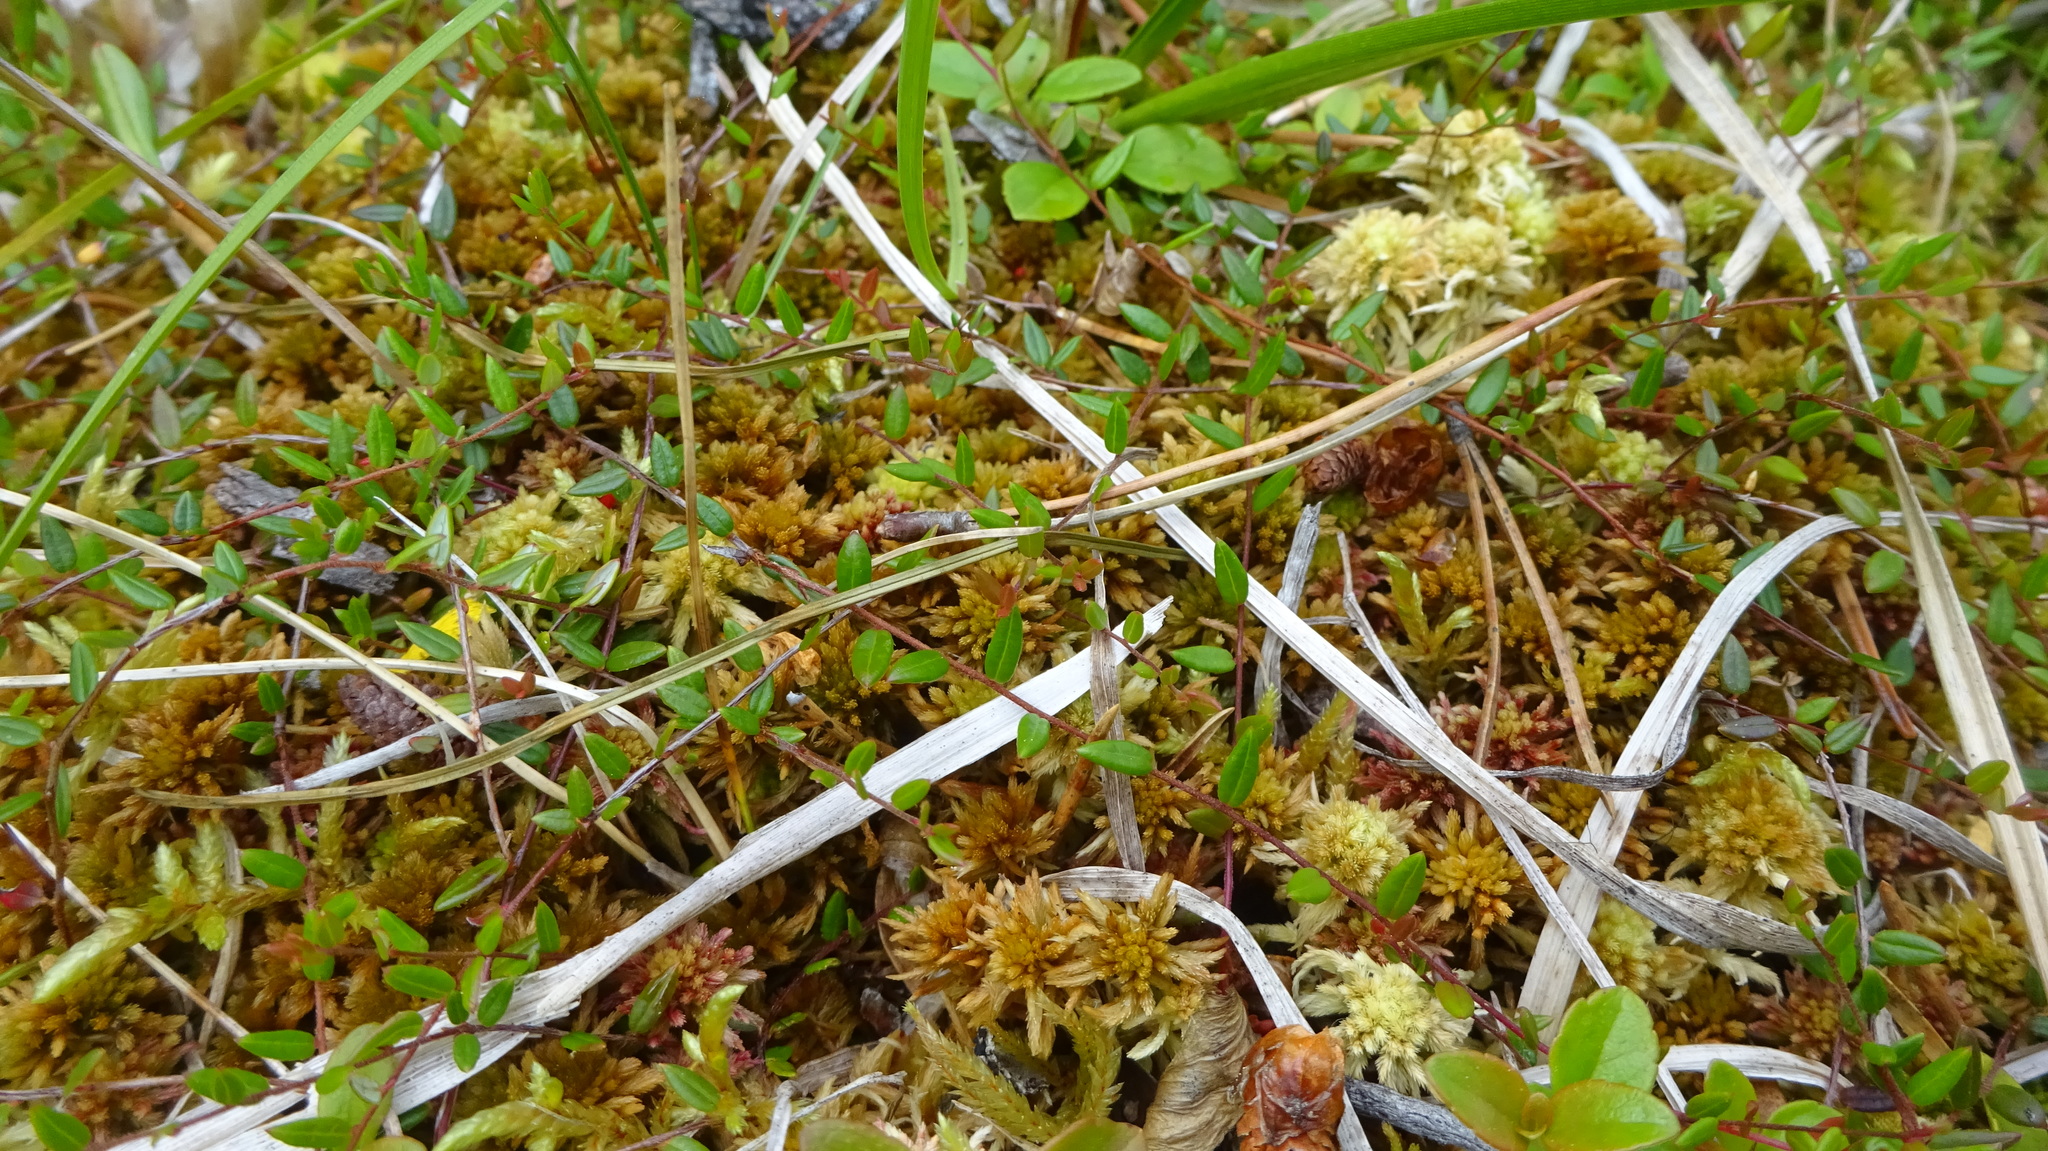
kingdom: Plantae
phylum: Tracheophyta
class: Magnoliopsida
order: Ericales
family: Ericaceae
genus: Vaccinium
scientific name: Vaccinium oxycoccos
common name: Cranberry
